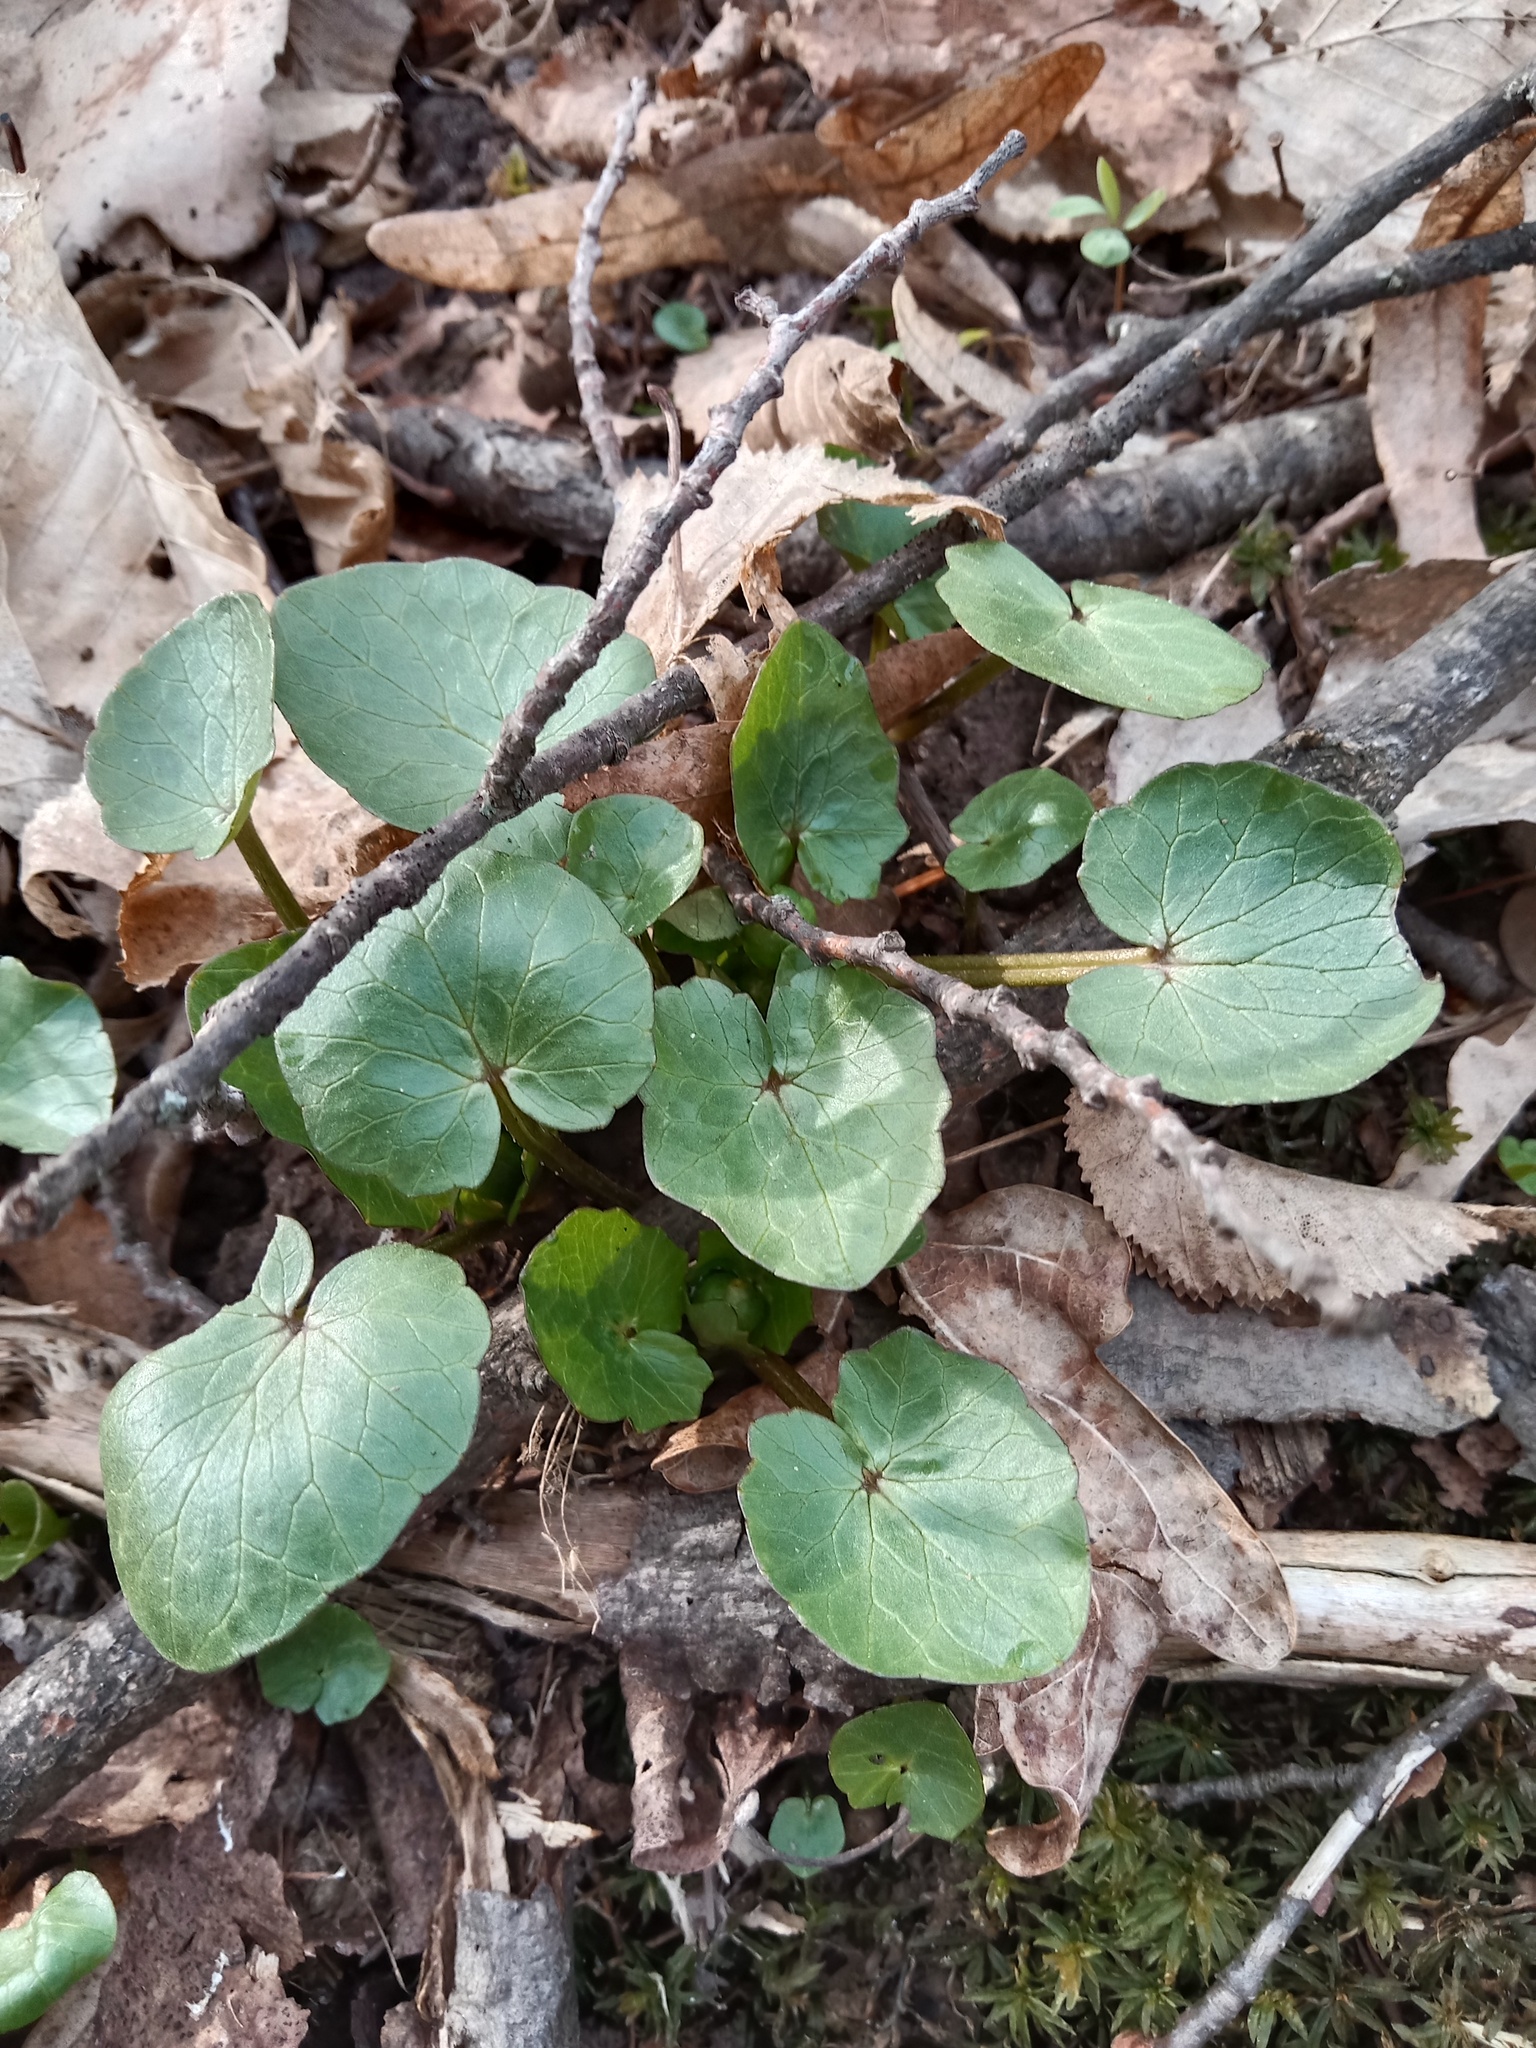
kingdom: Plantae
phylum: Tracheophyta
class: Magnoliopsida
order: Ranunculales
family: Ranunculaceae
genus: Ficaria
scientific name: Ficaria verna
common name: Lesser celandine
